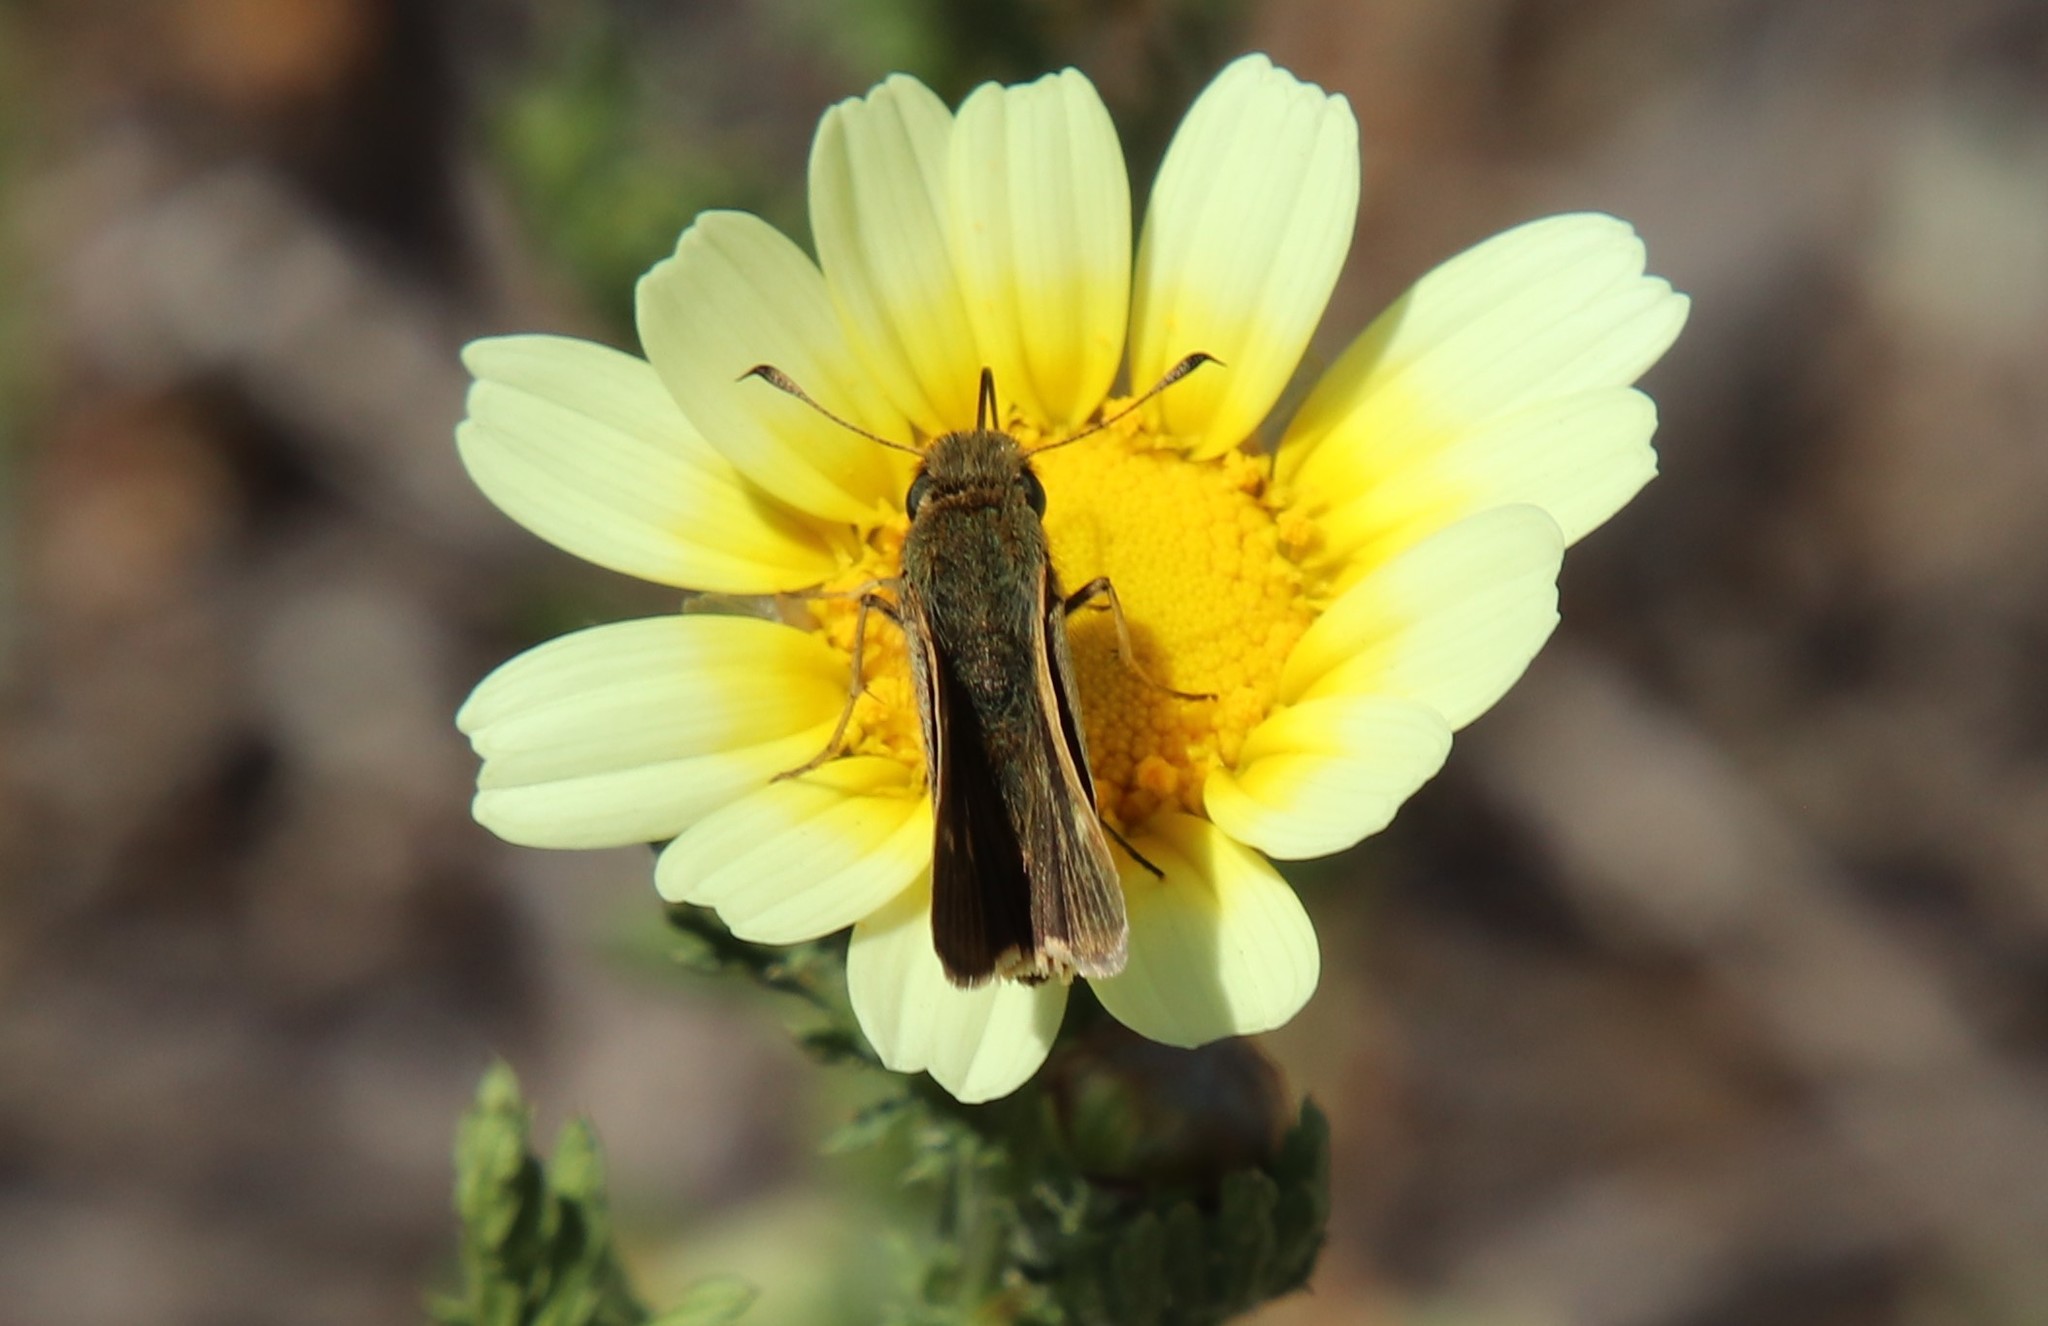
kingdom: Animalia
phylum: Arthropoda
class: Insecta
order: Lepidoptera
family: Hesperiidae
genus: Panoquina
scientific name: Panoquina errans
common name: Wandering skipper
